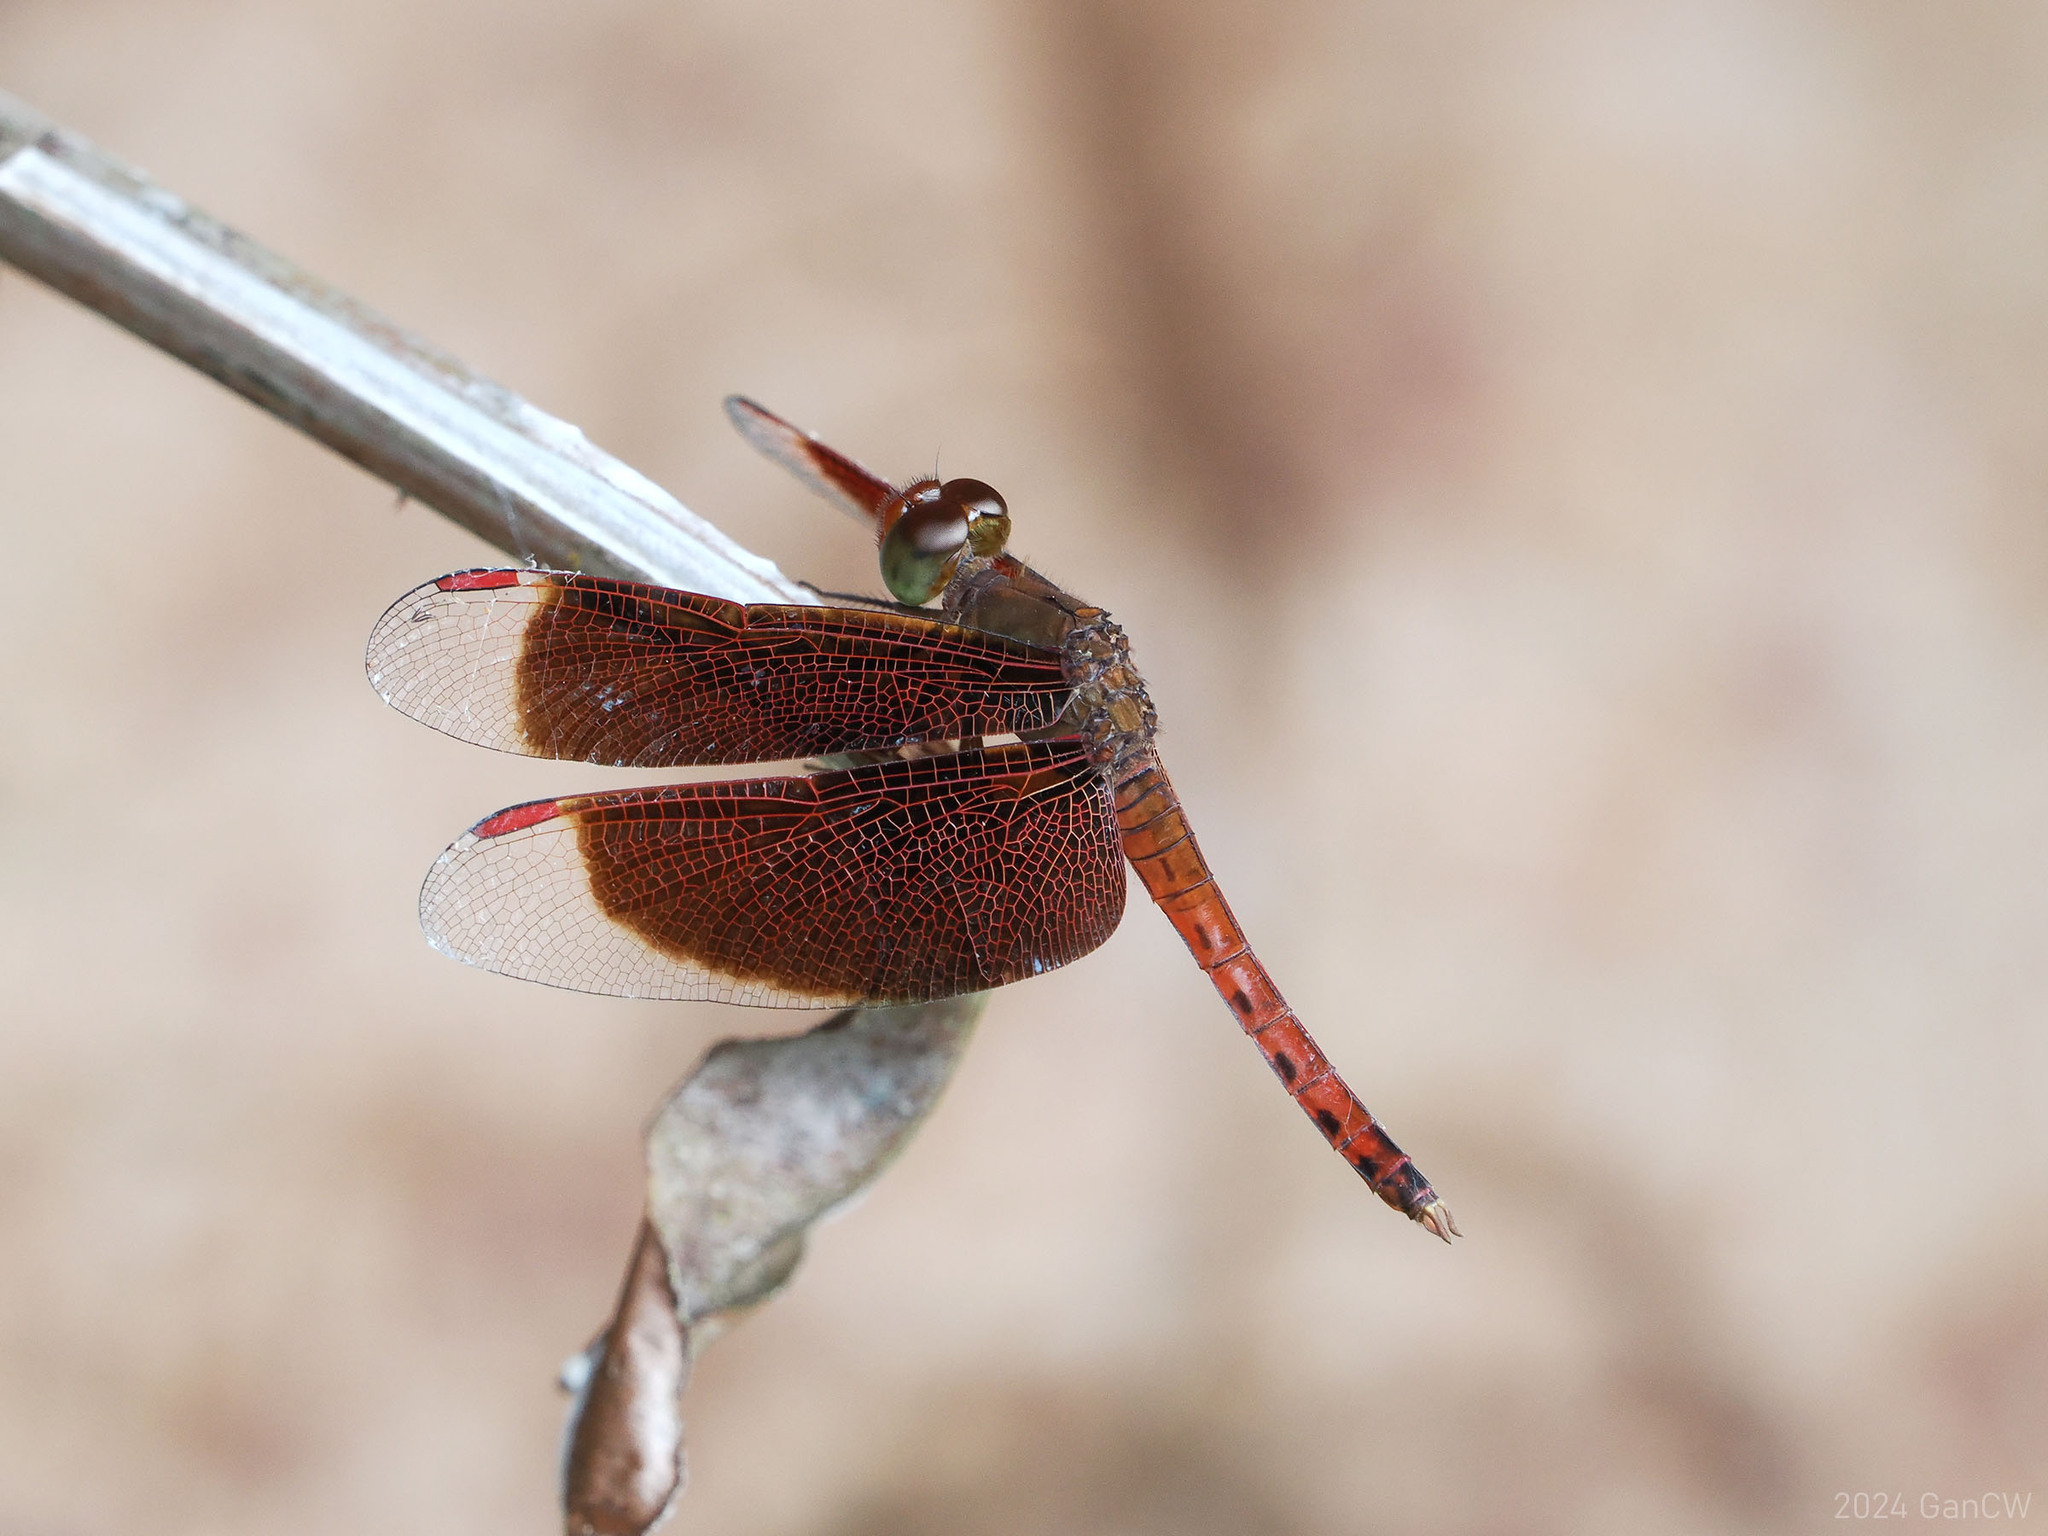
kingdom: Animalia
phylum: Arthropoda
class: Insecta
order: Odonata
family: Libellulidae
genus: Neurothemis
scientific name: Neurothemis fluctuans
